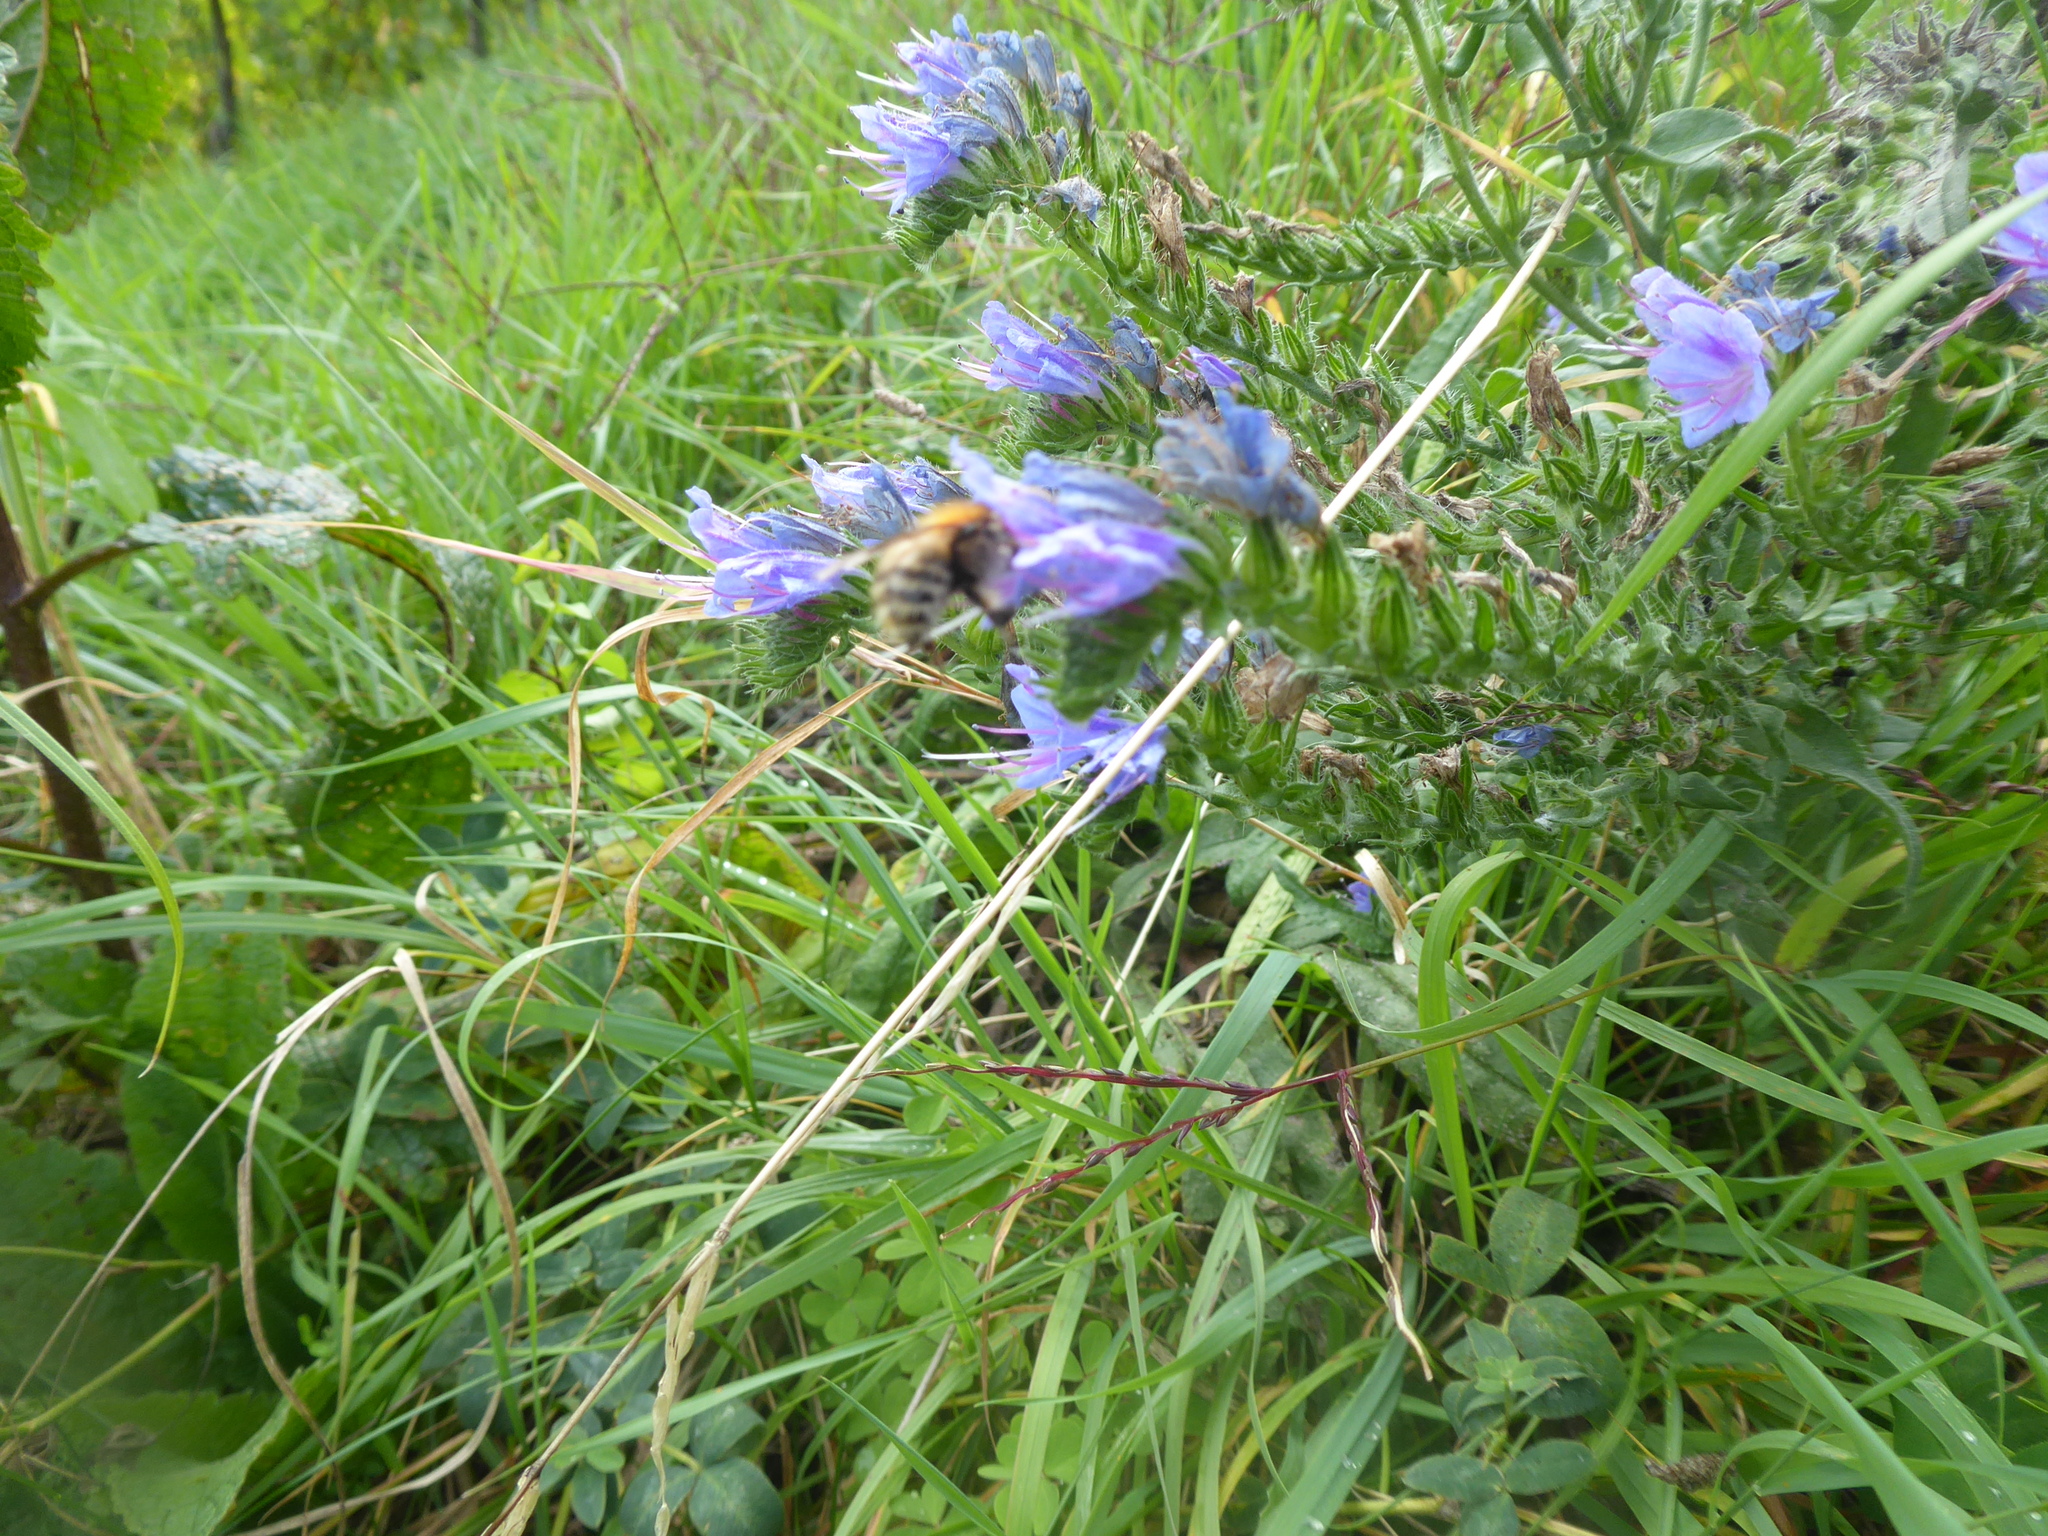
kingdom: Plantae
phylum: Tracheophyta
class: Magnoliopsida
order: Boraginales
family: Boraginaceae
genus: Echium
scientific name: Echium vulgare
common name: Common viper's bugloss
